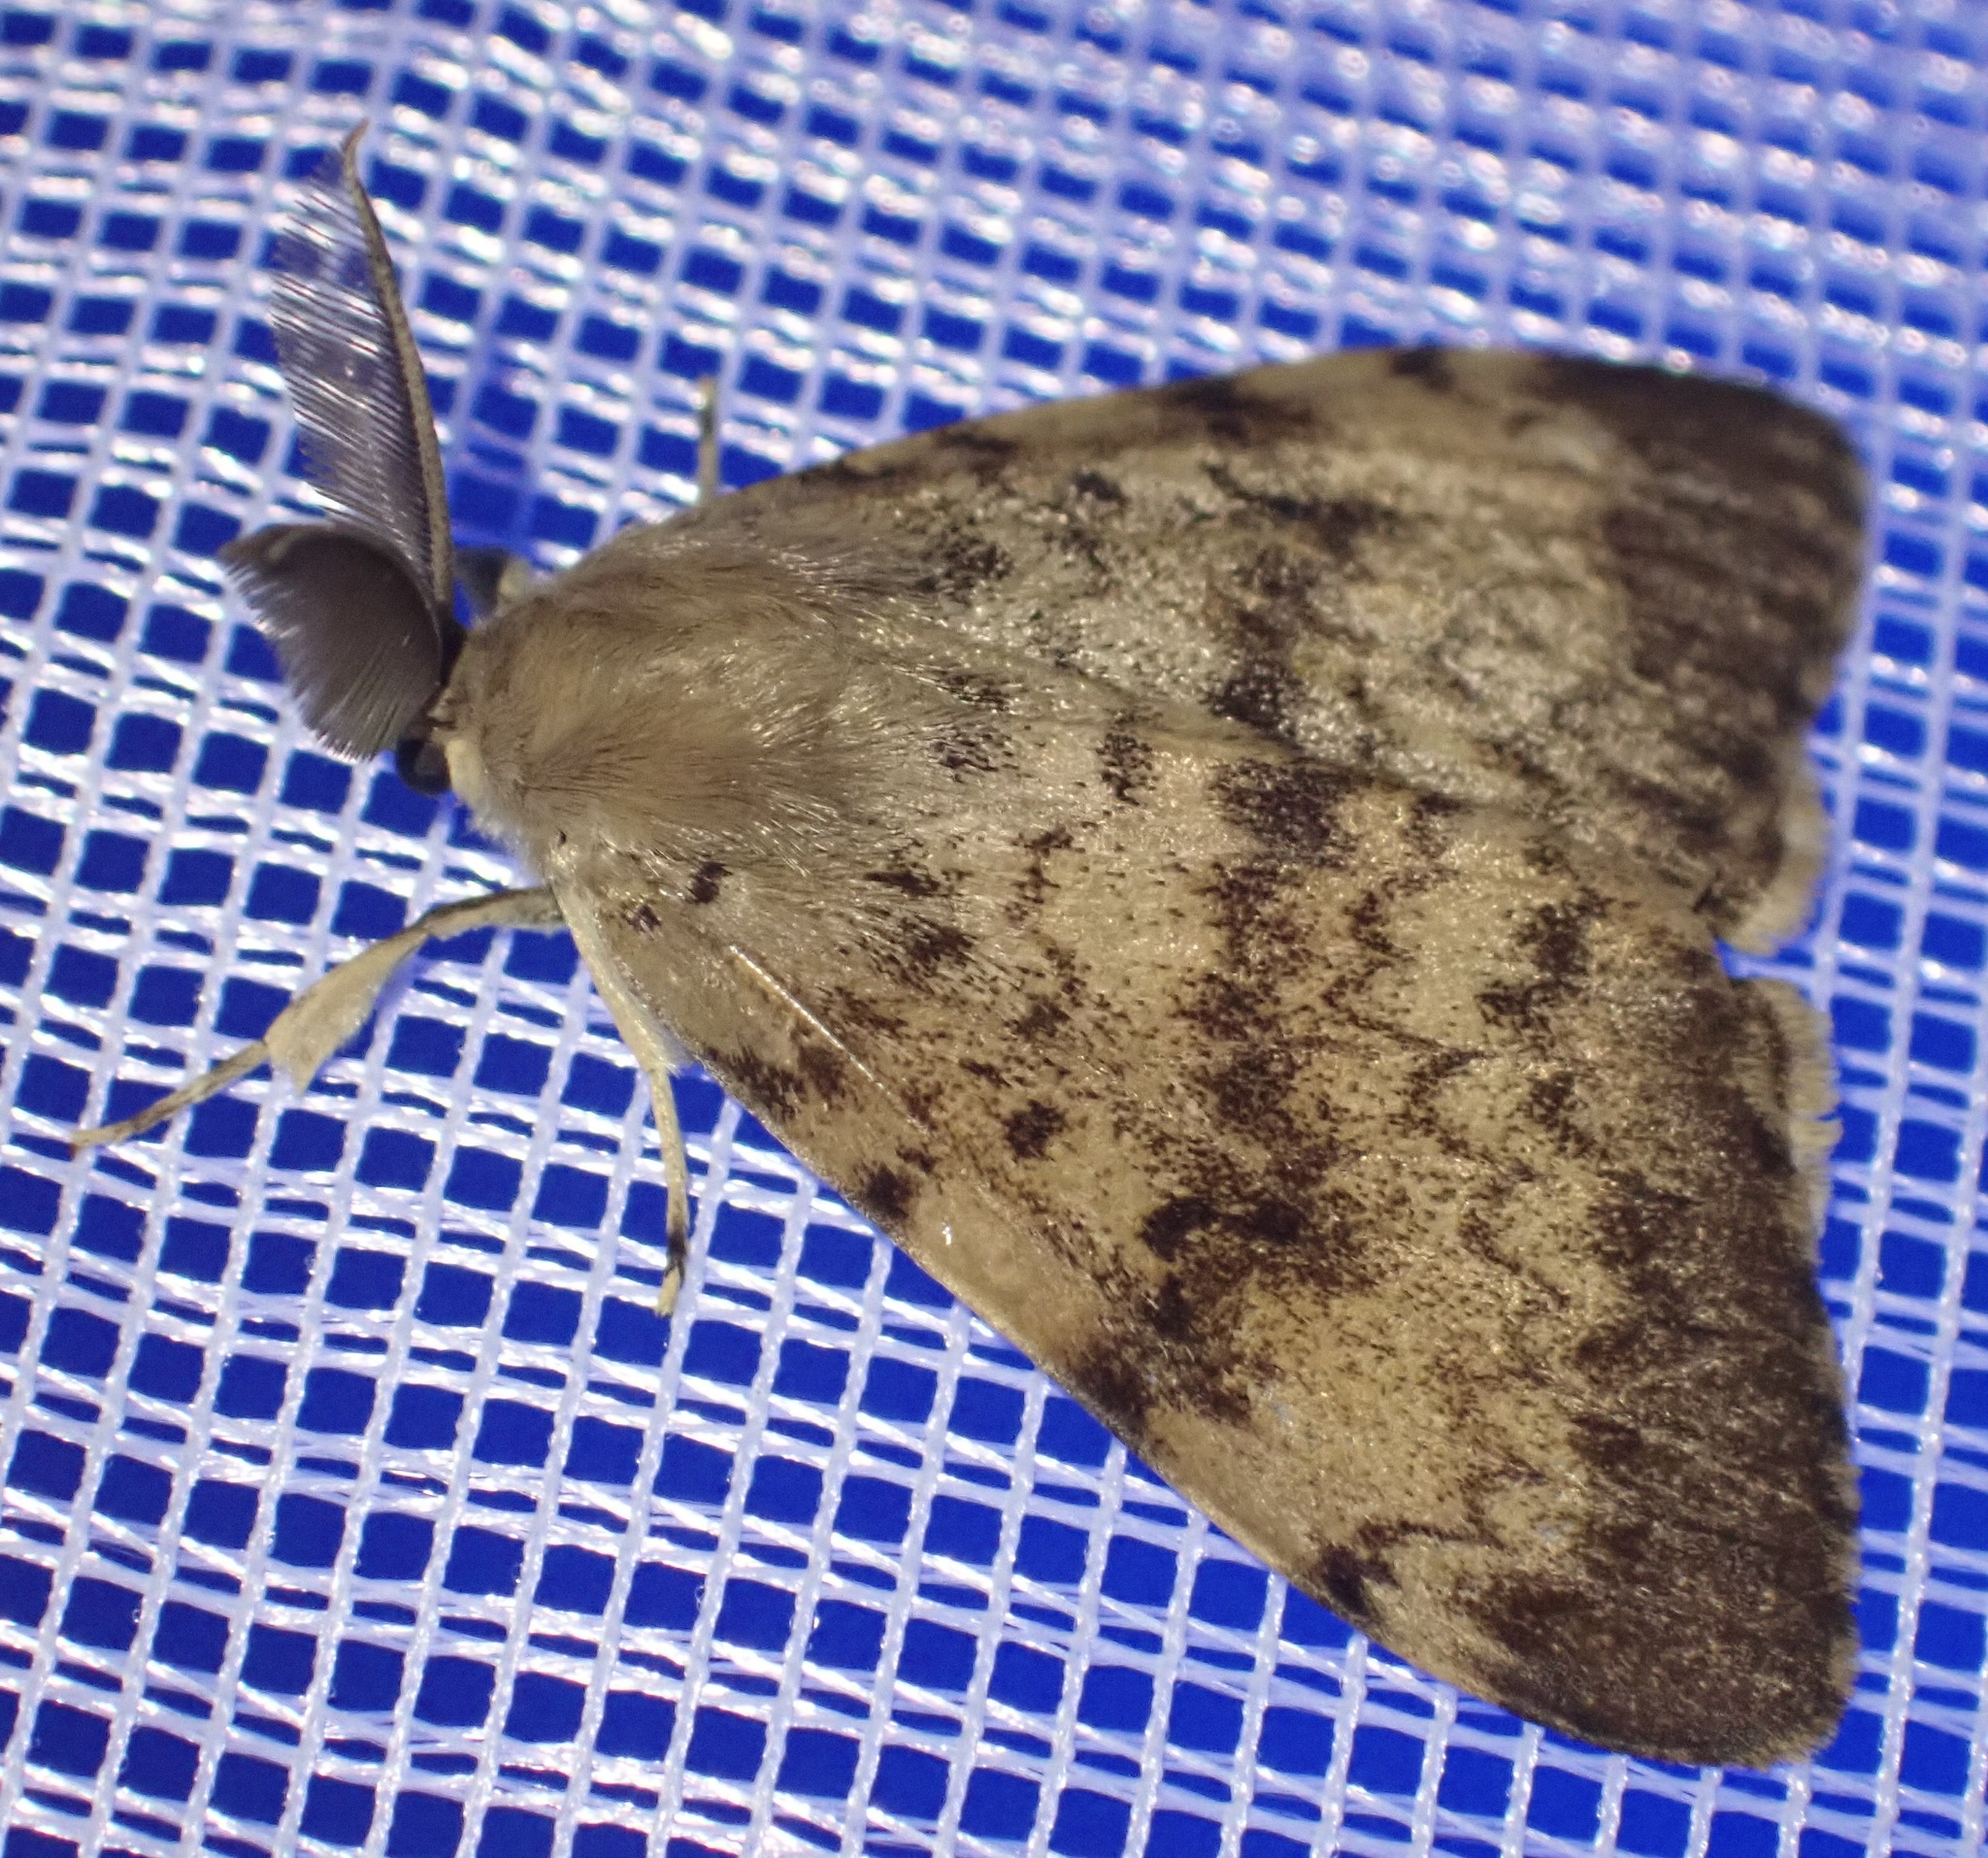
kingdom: Animalia
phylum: Arthropoda
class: Insecta
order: Lepidoptera
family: Erebidae
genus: Lymantria
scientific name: Lymantria dispar
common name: Gypsy moth
